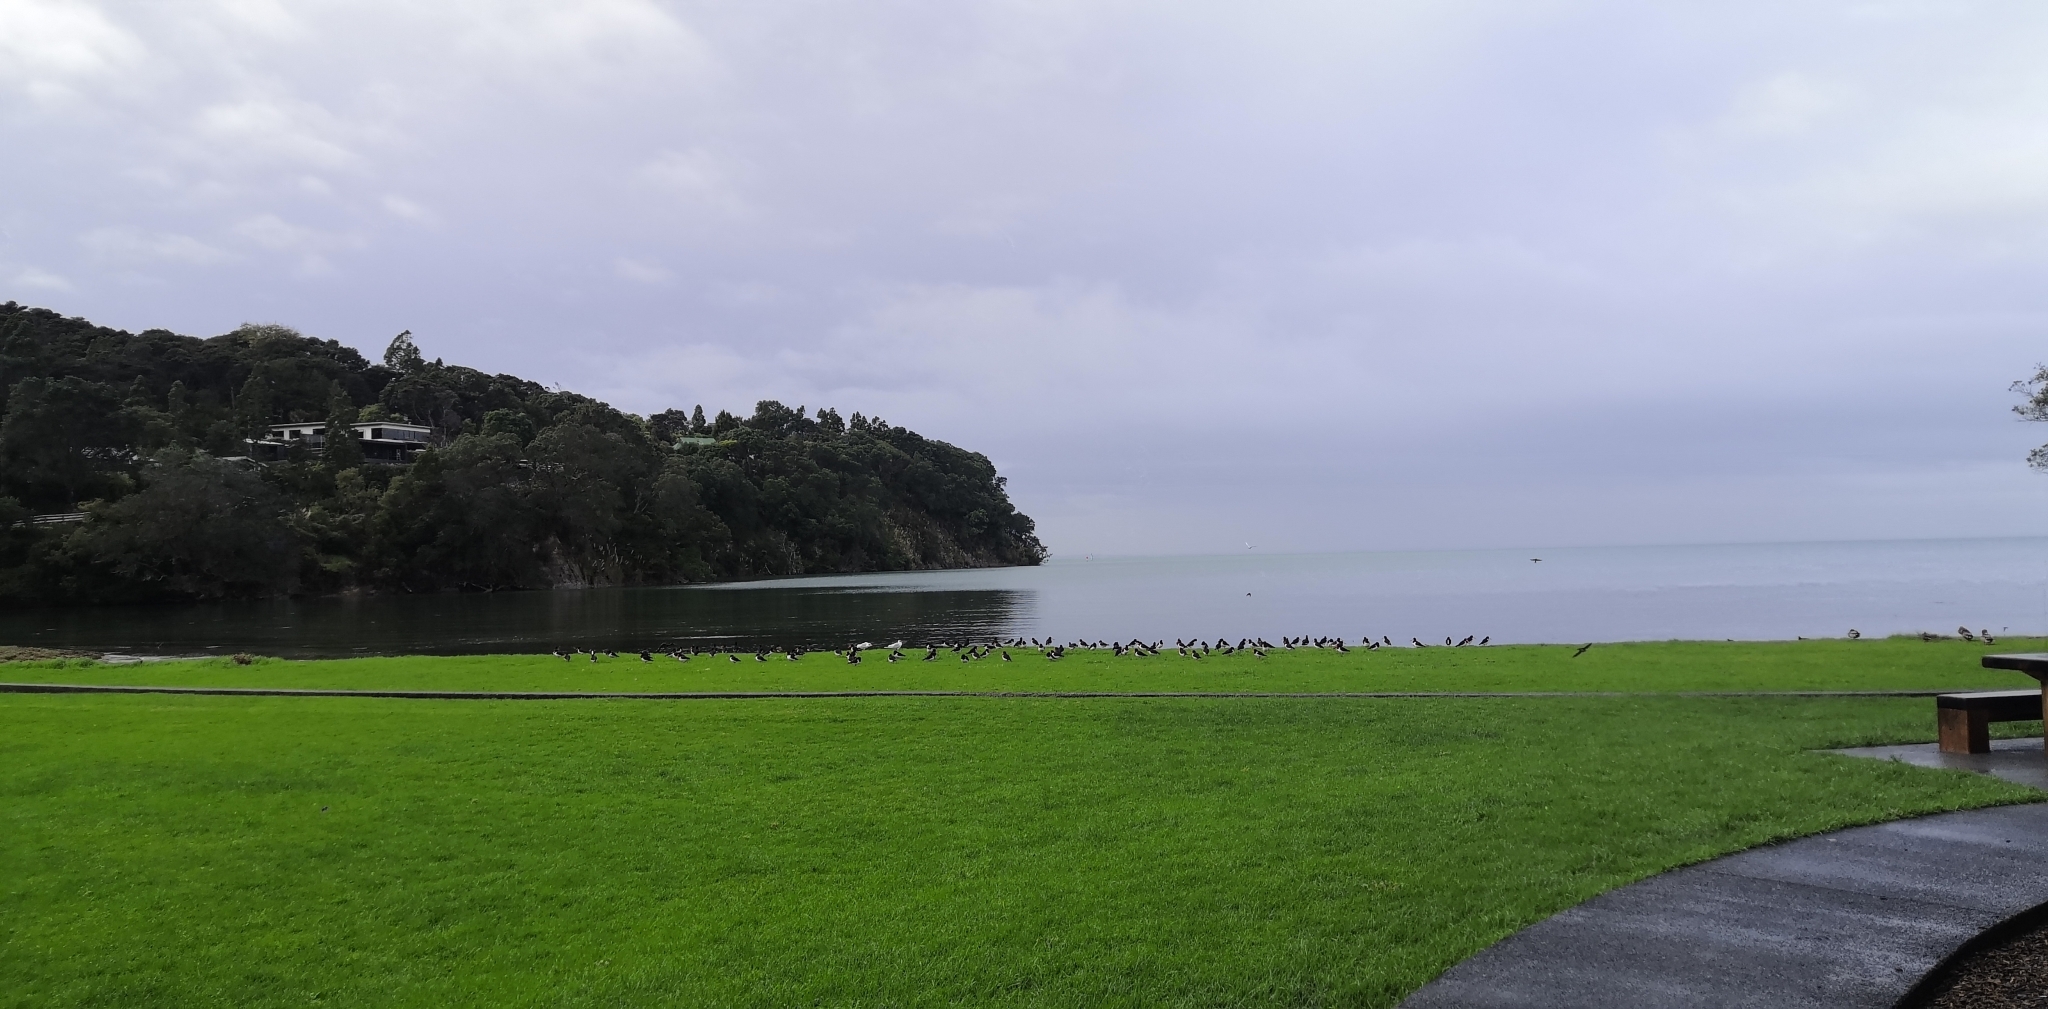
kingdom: Animalia
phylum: Chordata
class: Aves
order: Charadriiformes
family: Haematopodidae
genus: Haematopus
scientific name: Haematopus finschi
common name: South island oystercatcher
